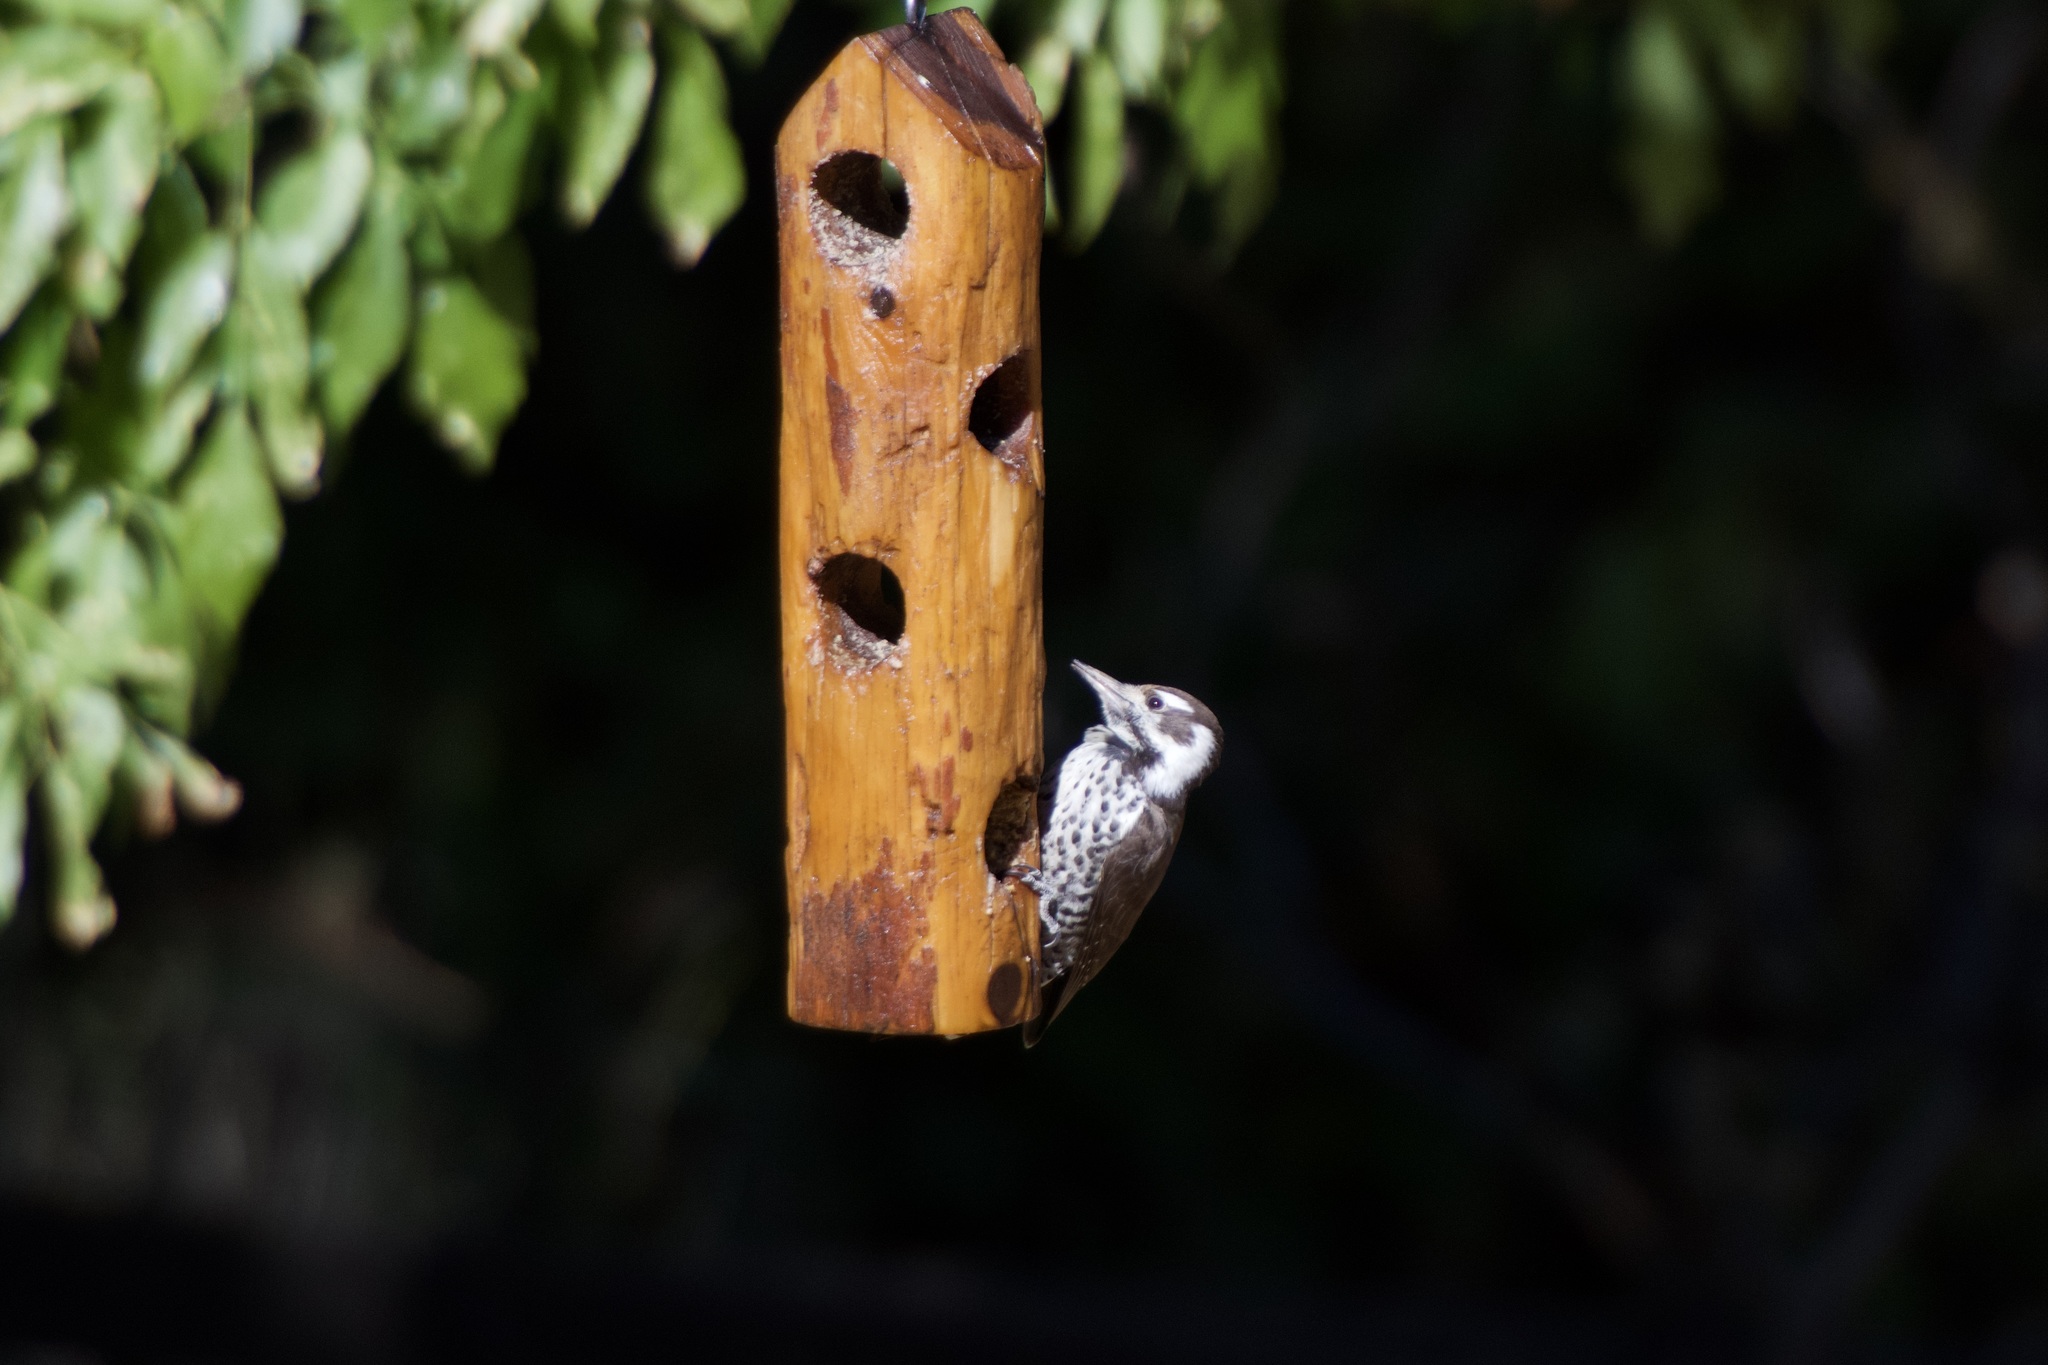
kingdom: Animalia
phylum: Chordata
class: Aves
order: Piciformes
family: Picidae
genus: Leuconotopicus
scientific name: Leuconotopicus arizonae
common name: Arizona woodpecker
